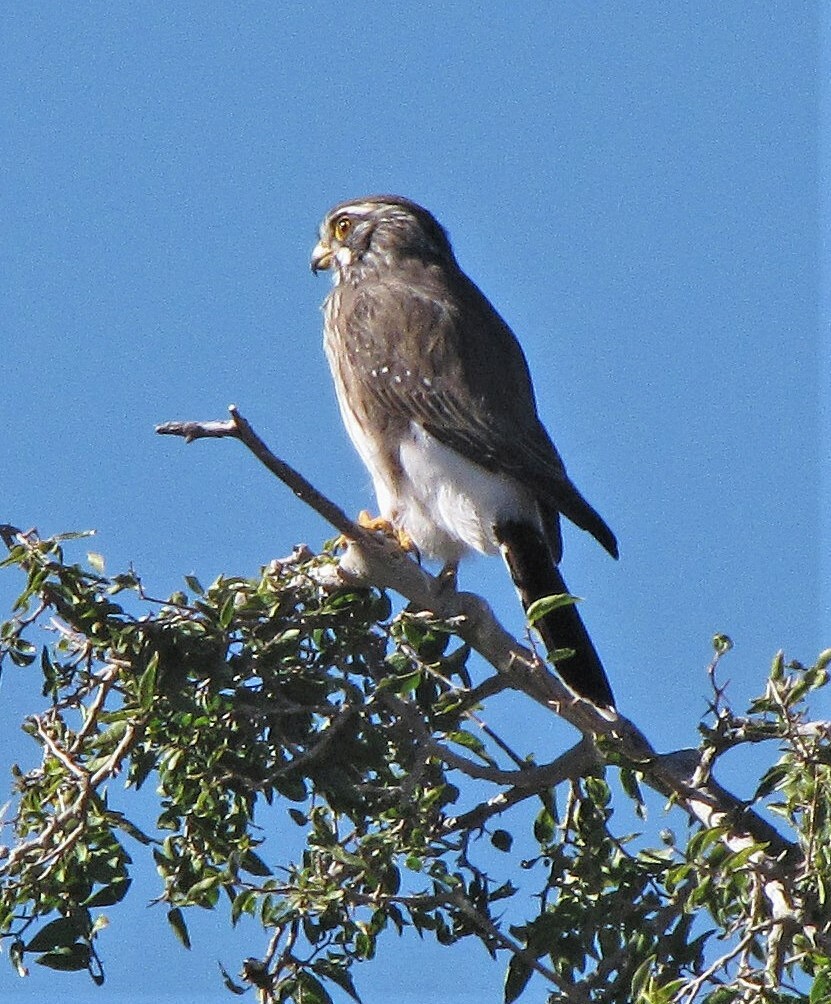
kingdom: Animalia
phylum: Chordata
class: Aves
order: Falconiformes
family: Falconidae
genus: Spiziapteryx
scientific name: Spiziapteryx circumcincta
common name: Spot-winged falconet
